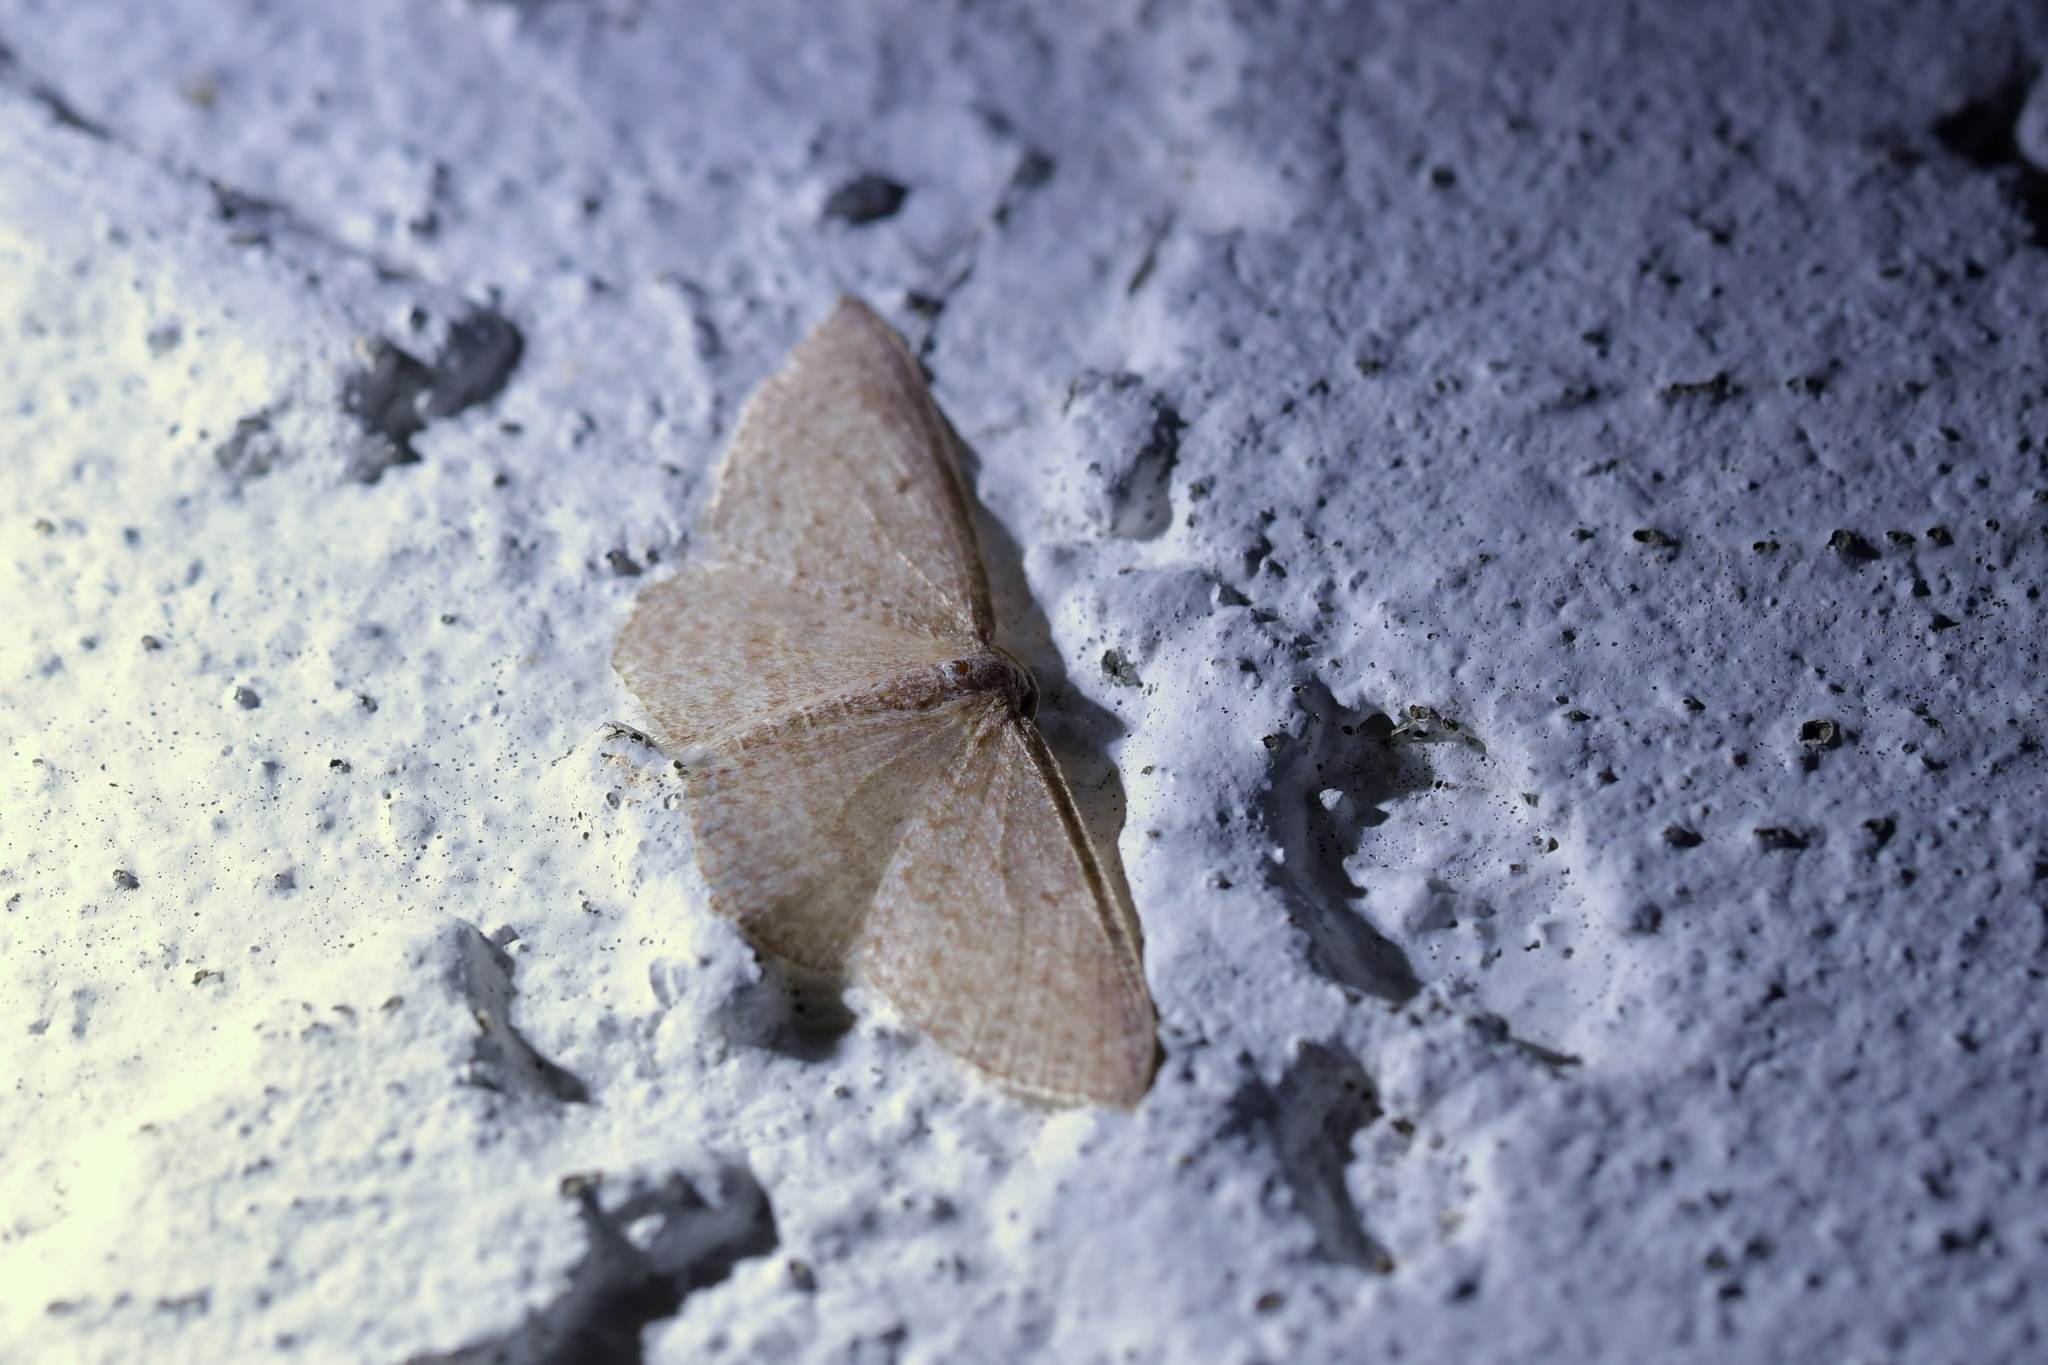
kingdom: Animalia
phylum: Arthropoda
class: Insecta
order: Lepidoptera
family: Geometridae
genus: Poecilasthena
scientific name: Poecilasthena subpurpureata
